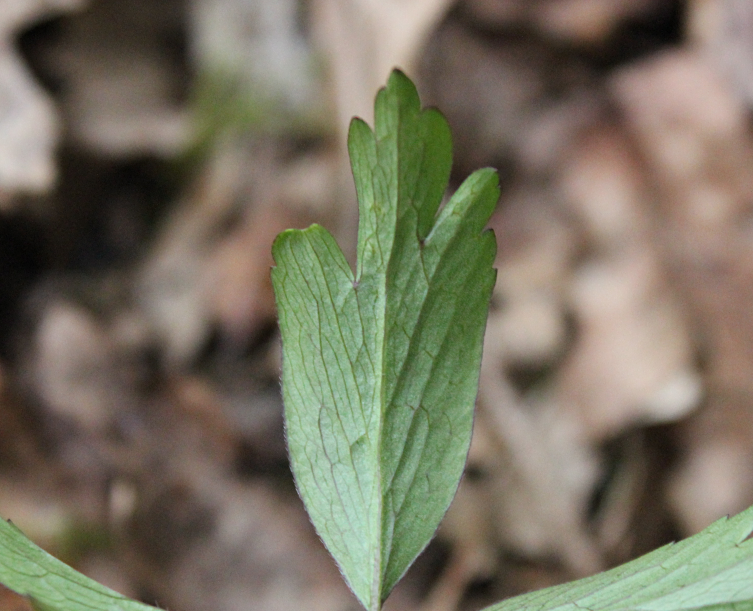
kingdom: Plantae
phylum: Tracheophyta
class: Magnoliopsida
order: Ranunculales
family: Ranunculaceae
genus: Anemone
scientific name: Anemone nemorosa
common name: Wood anemone
